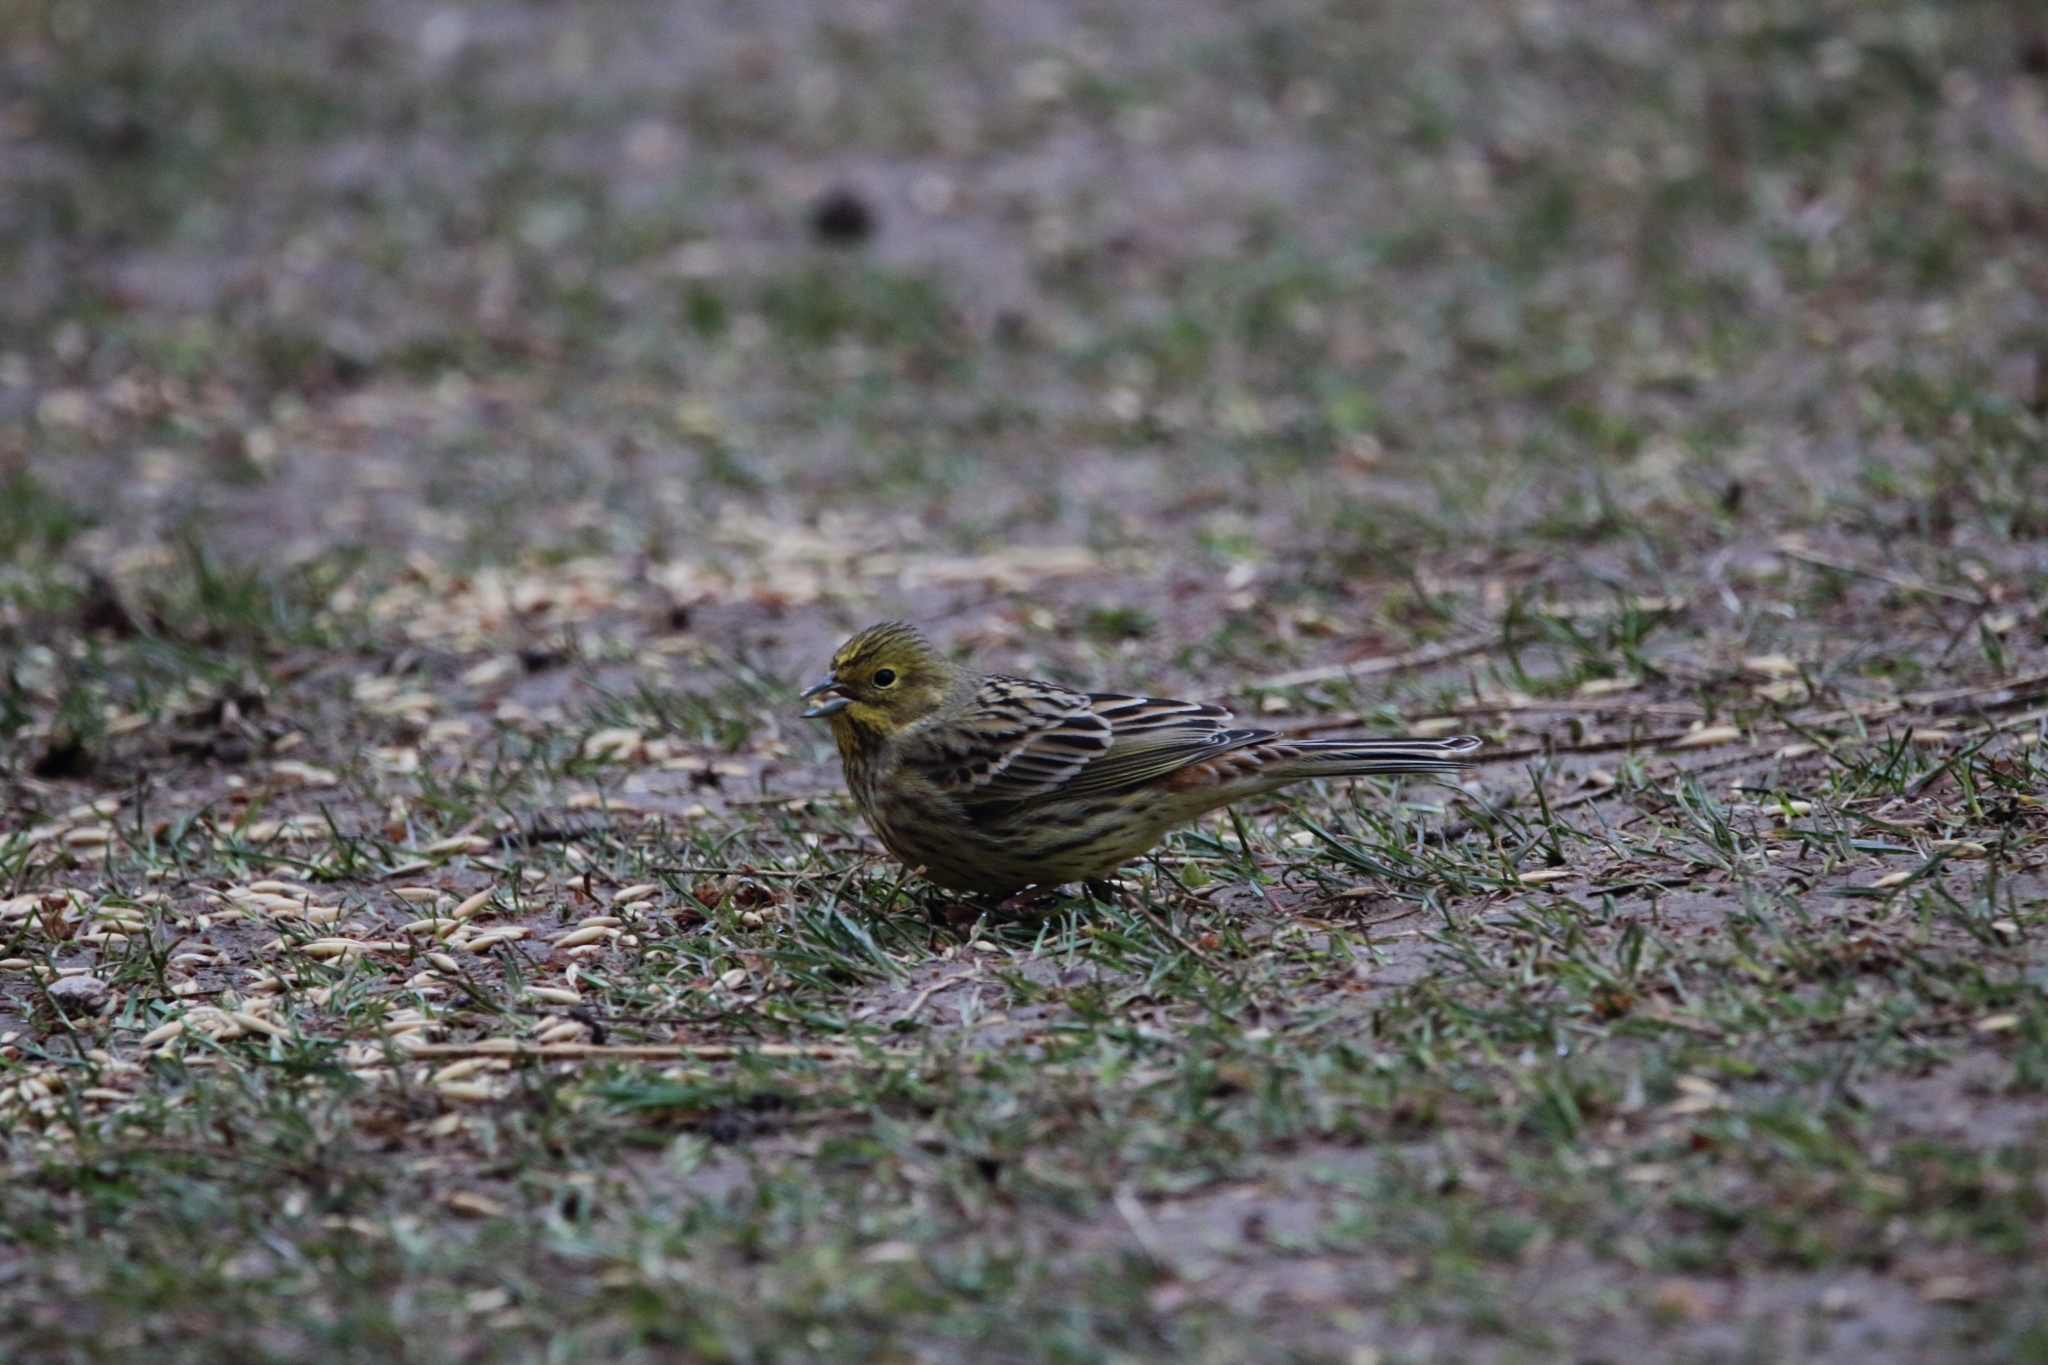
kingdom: Animalia
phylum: Chordata
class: Aves
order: Passeriformes
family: Emberizidae
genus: Emberiza
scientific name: Emberiza citrinella
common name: Yellowhammer
